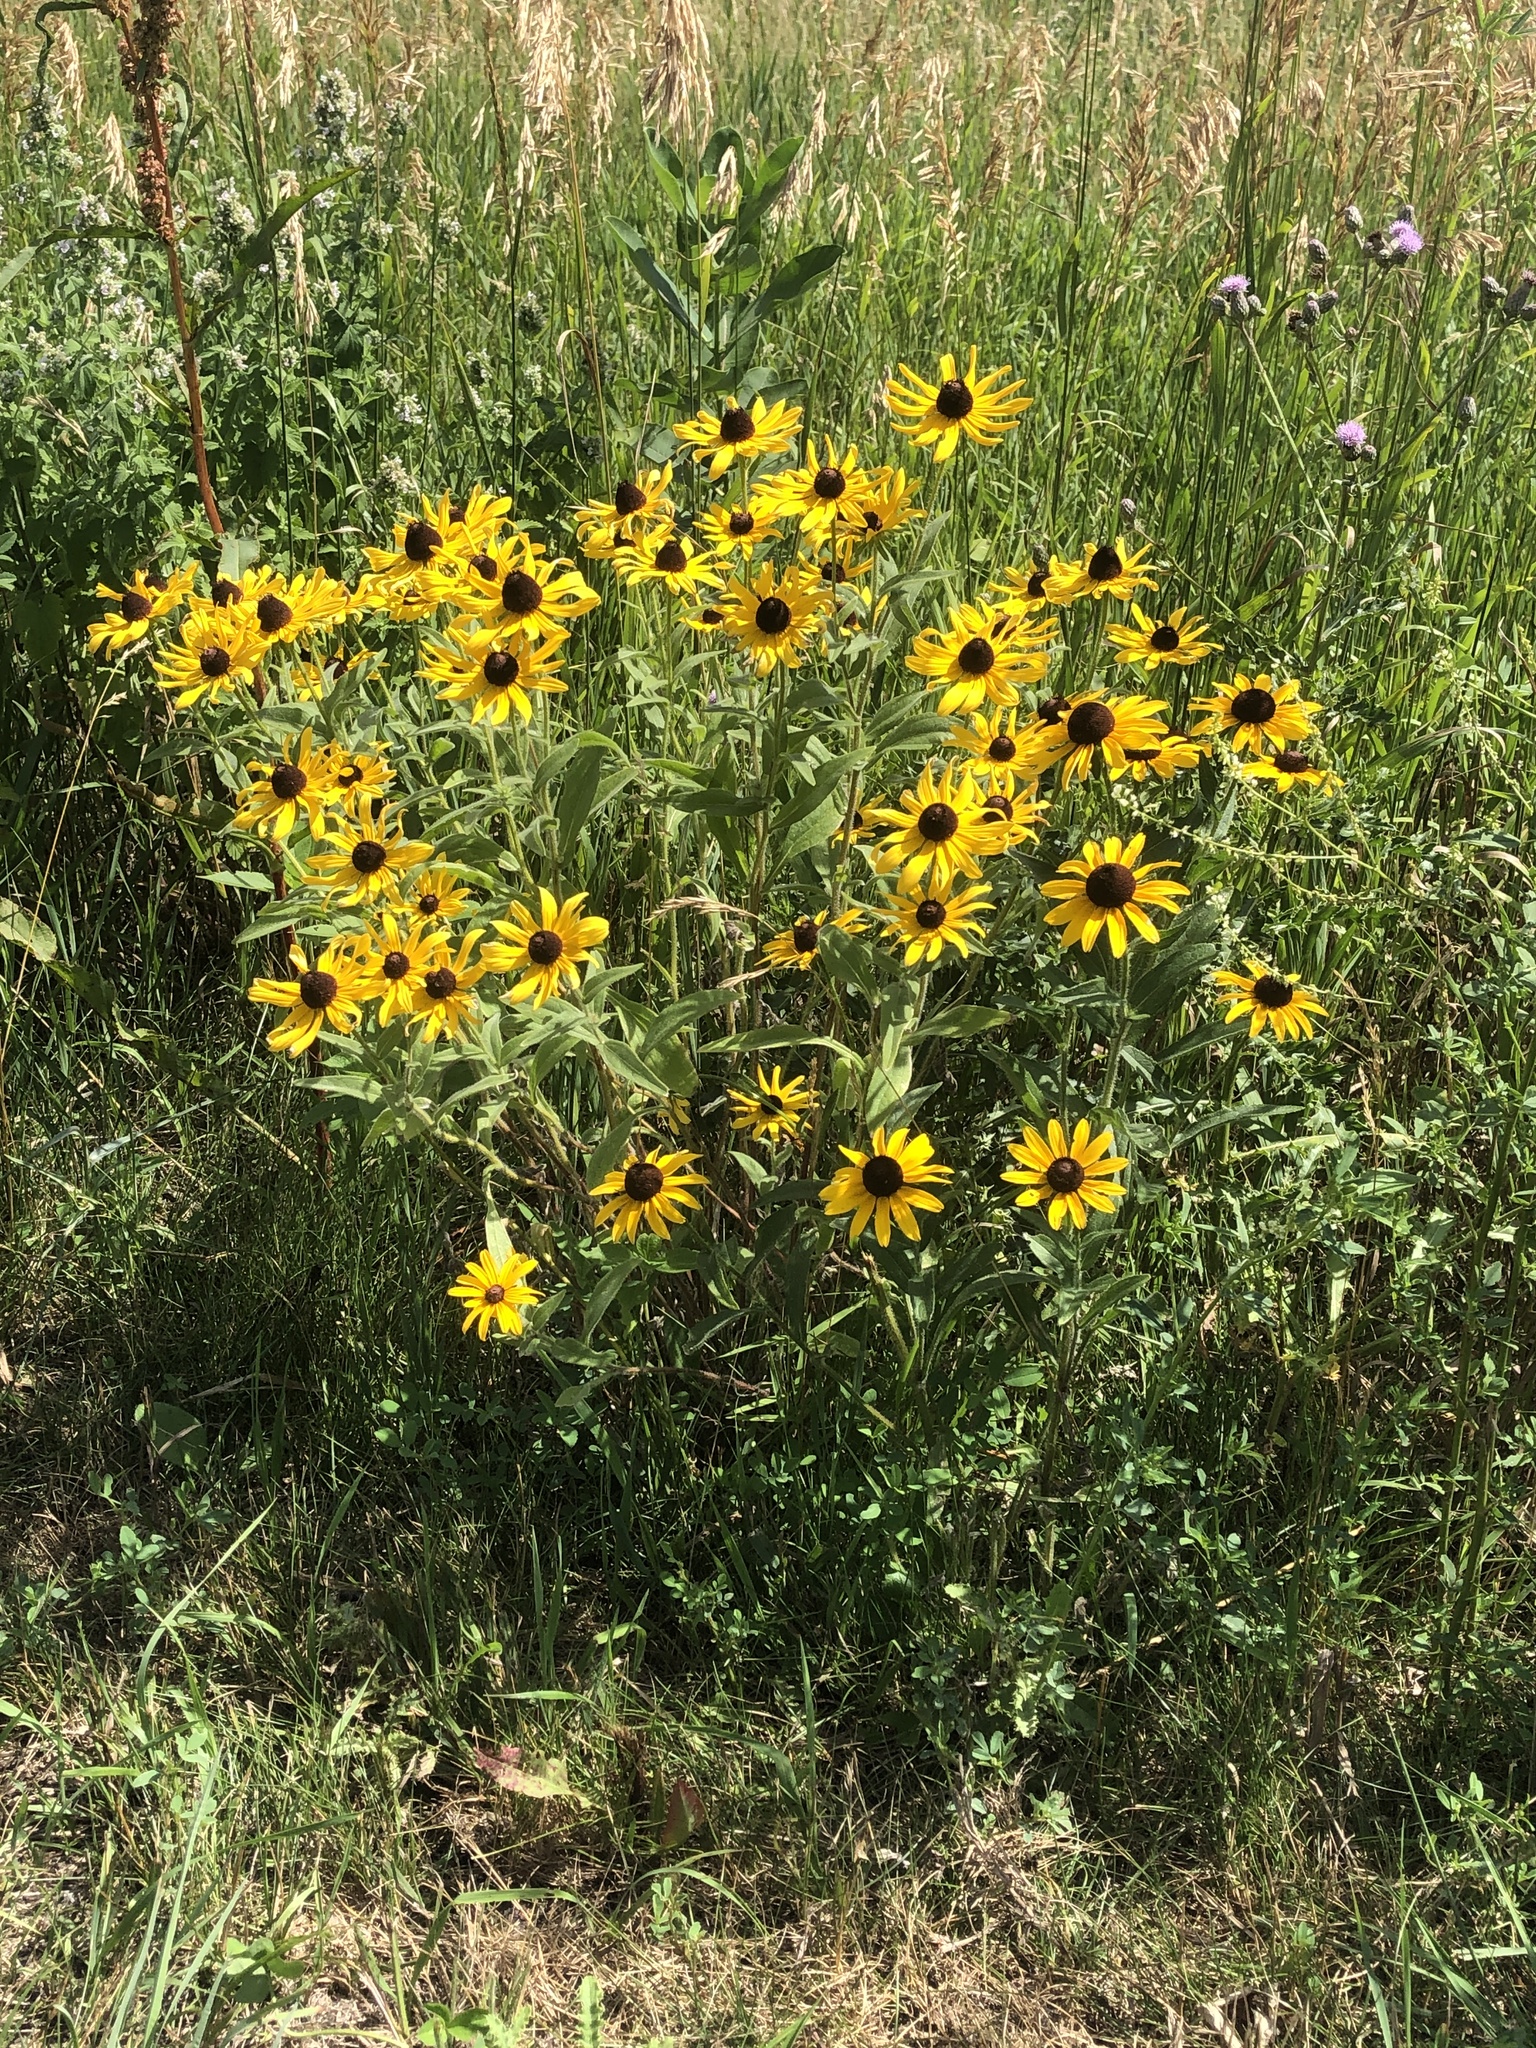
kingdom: Plantae
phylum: Tracheophyta
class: Magnoliopsida
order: Asterales
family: Asteraceae
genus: Rudbeckia
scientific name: Rudbeckia hirta
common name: Black-eyed-susan
